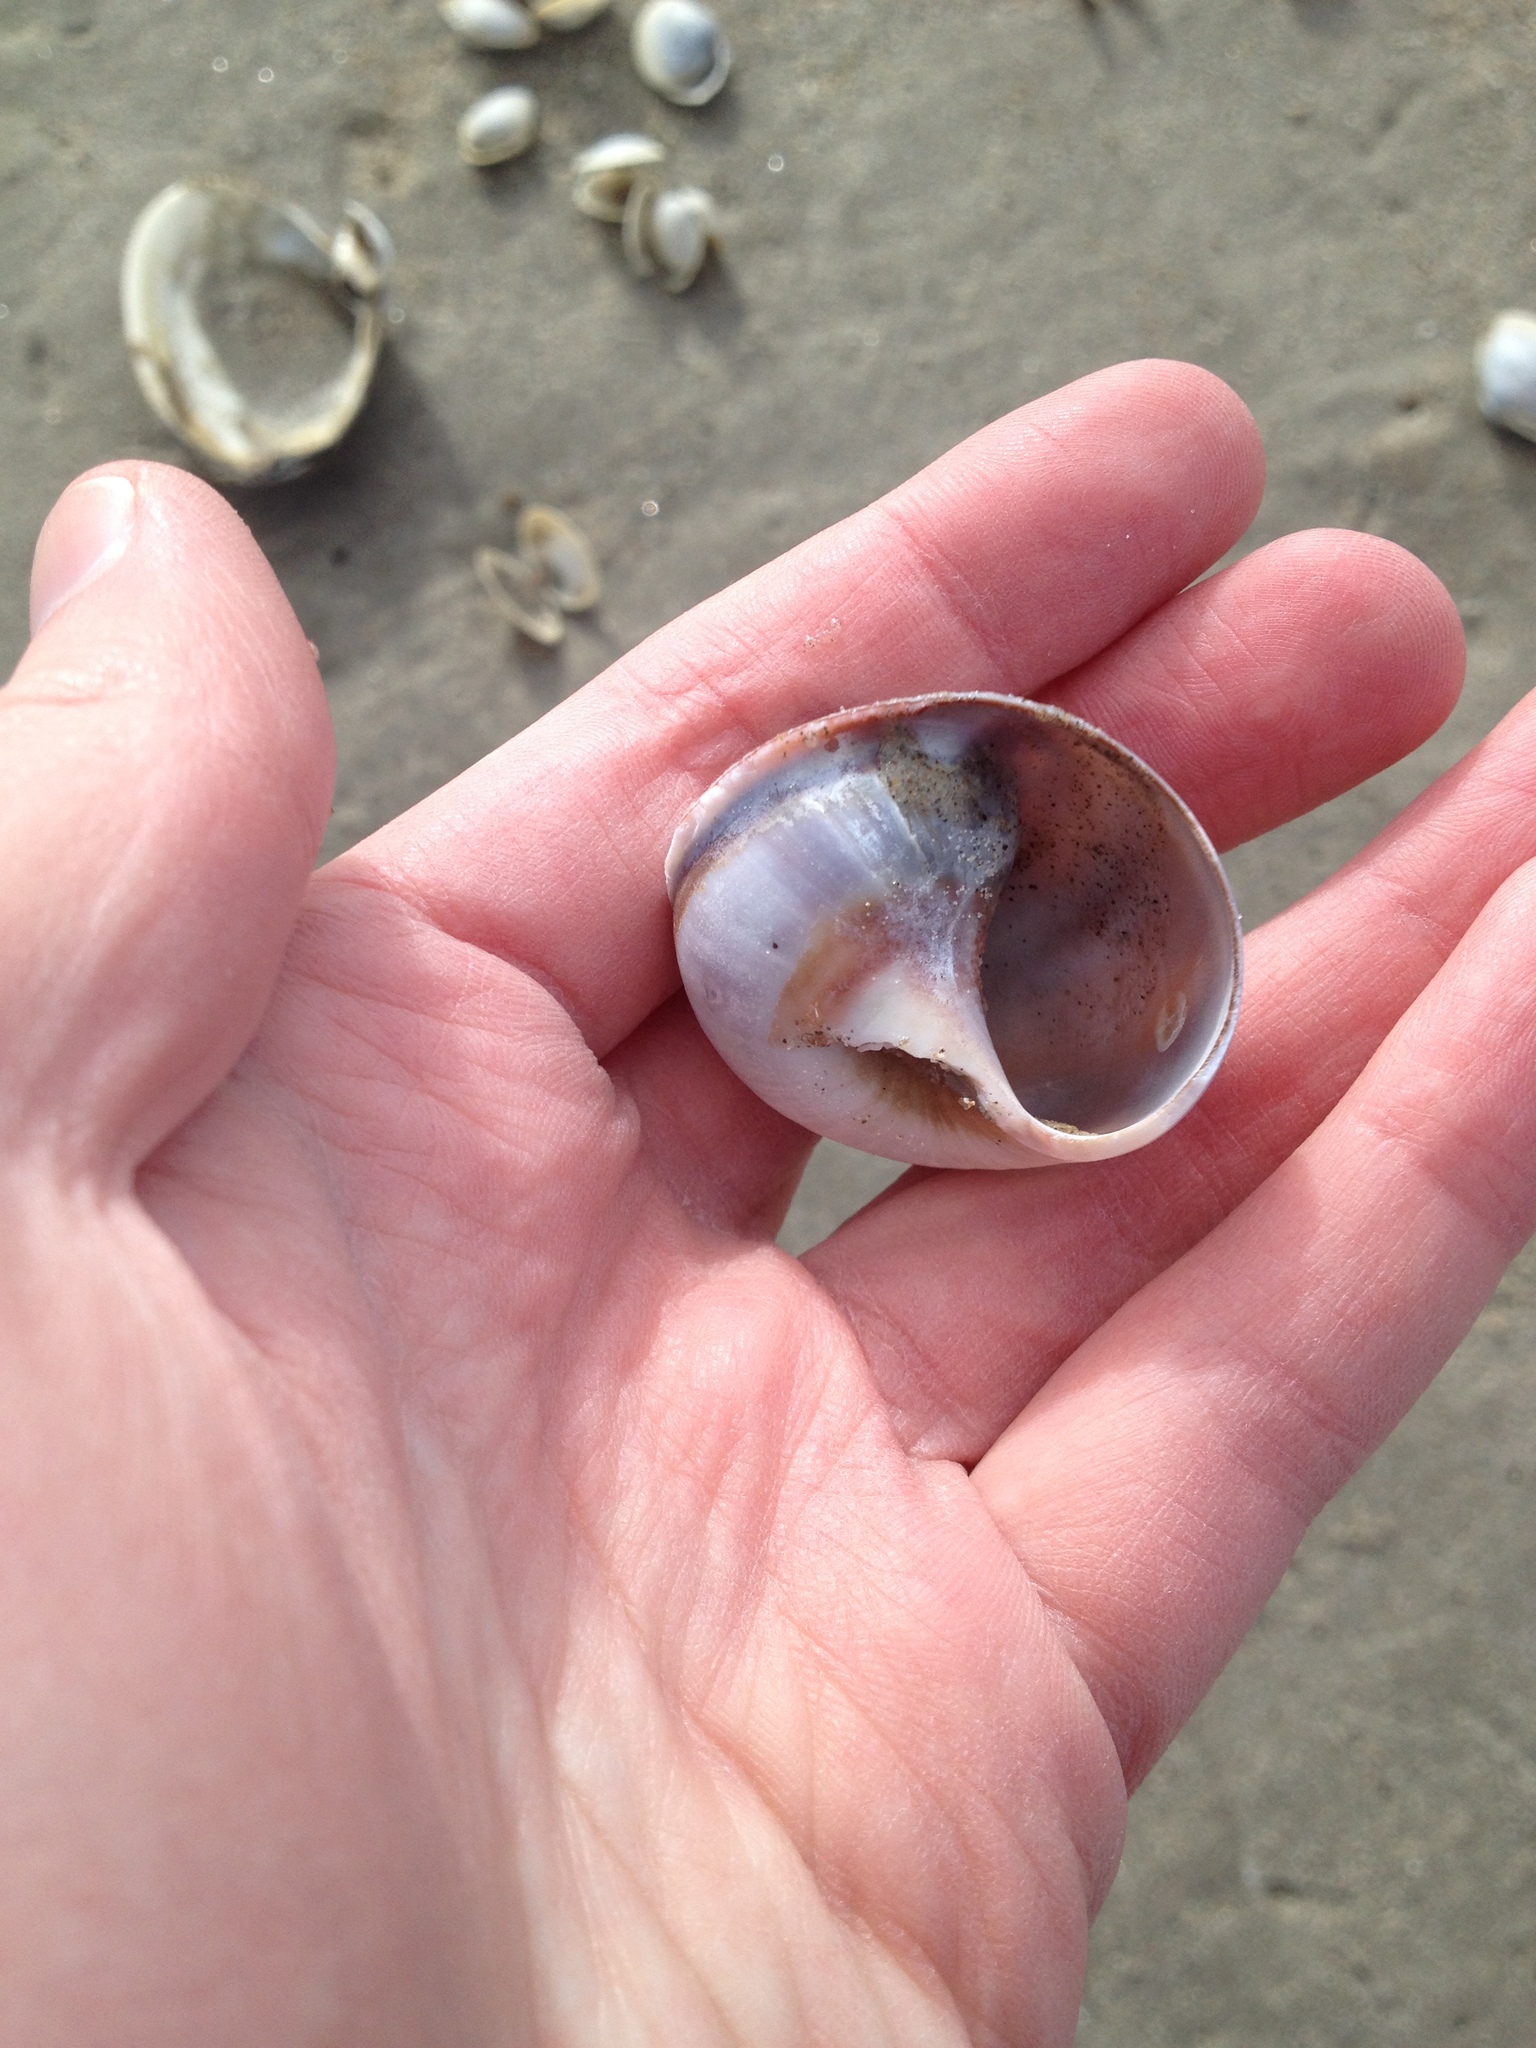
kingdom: Animalia
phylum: Mollusca
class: Gastropoda
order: Littorinimorpha
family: Naticidae
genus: Euspira
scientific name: Euspira heros
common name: Common northern moonsnail
